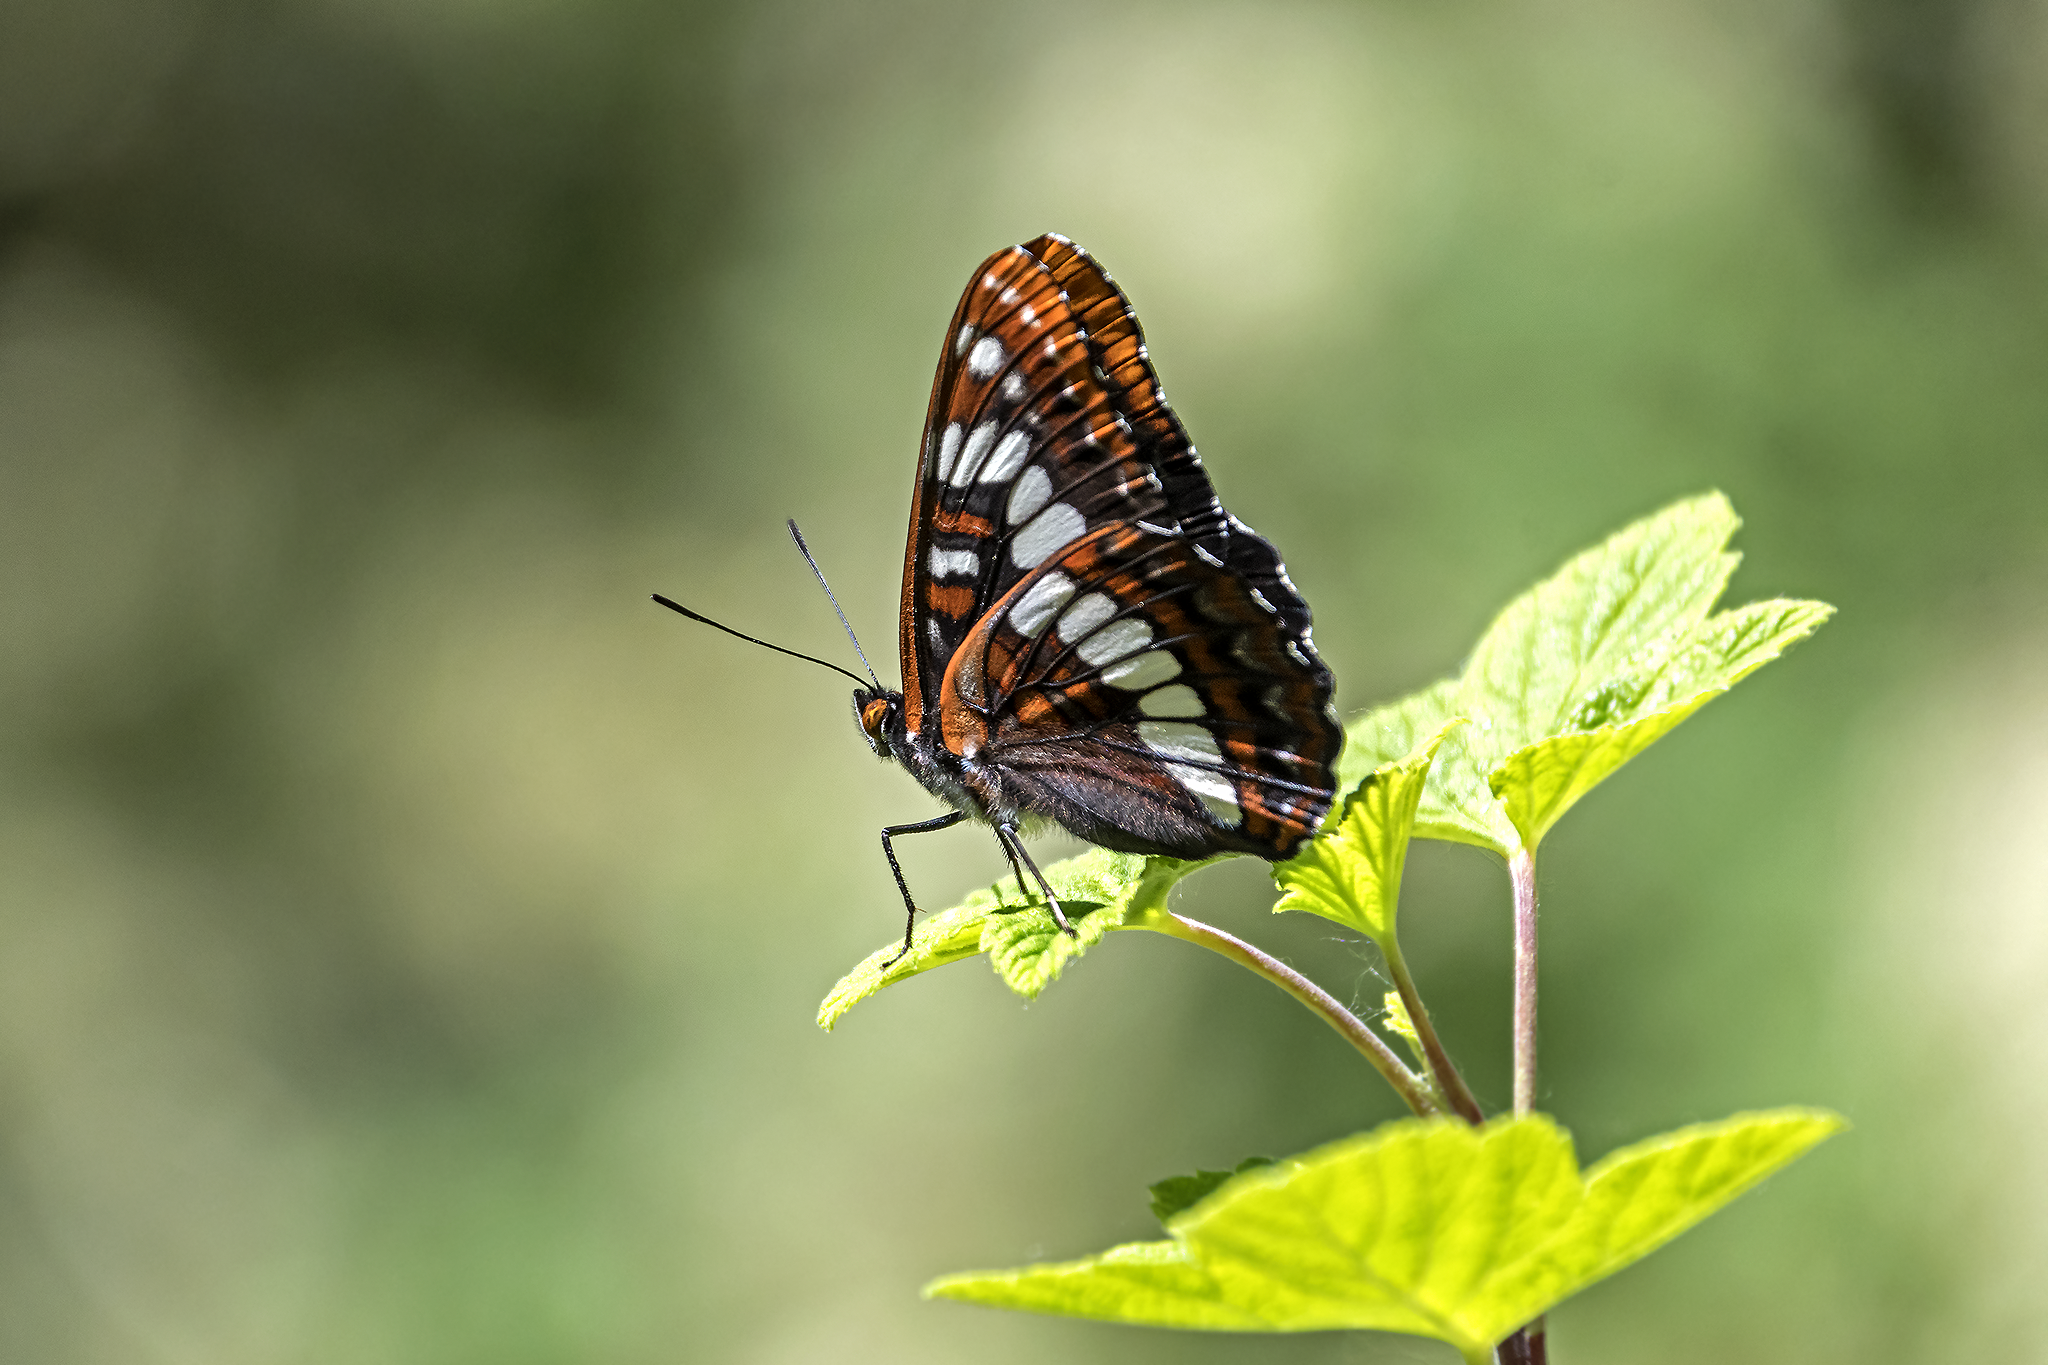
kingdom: Animalia
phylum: Arthropoda
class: Insecta
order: Lepidoptera
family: Nymphalidae
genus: Limenitis
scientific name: Limenitis lorquini
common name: Lorquin's admiral
